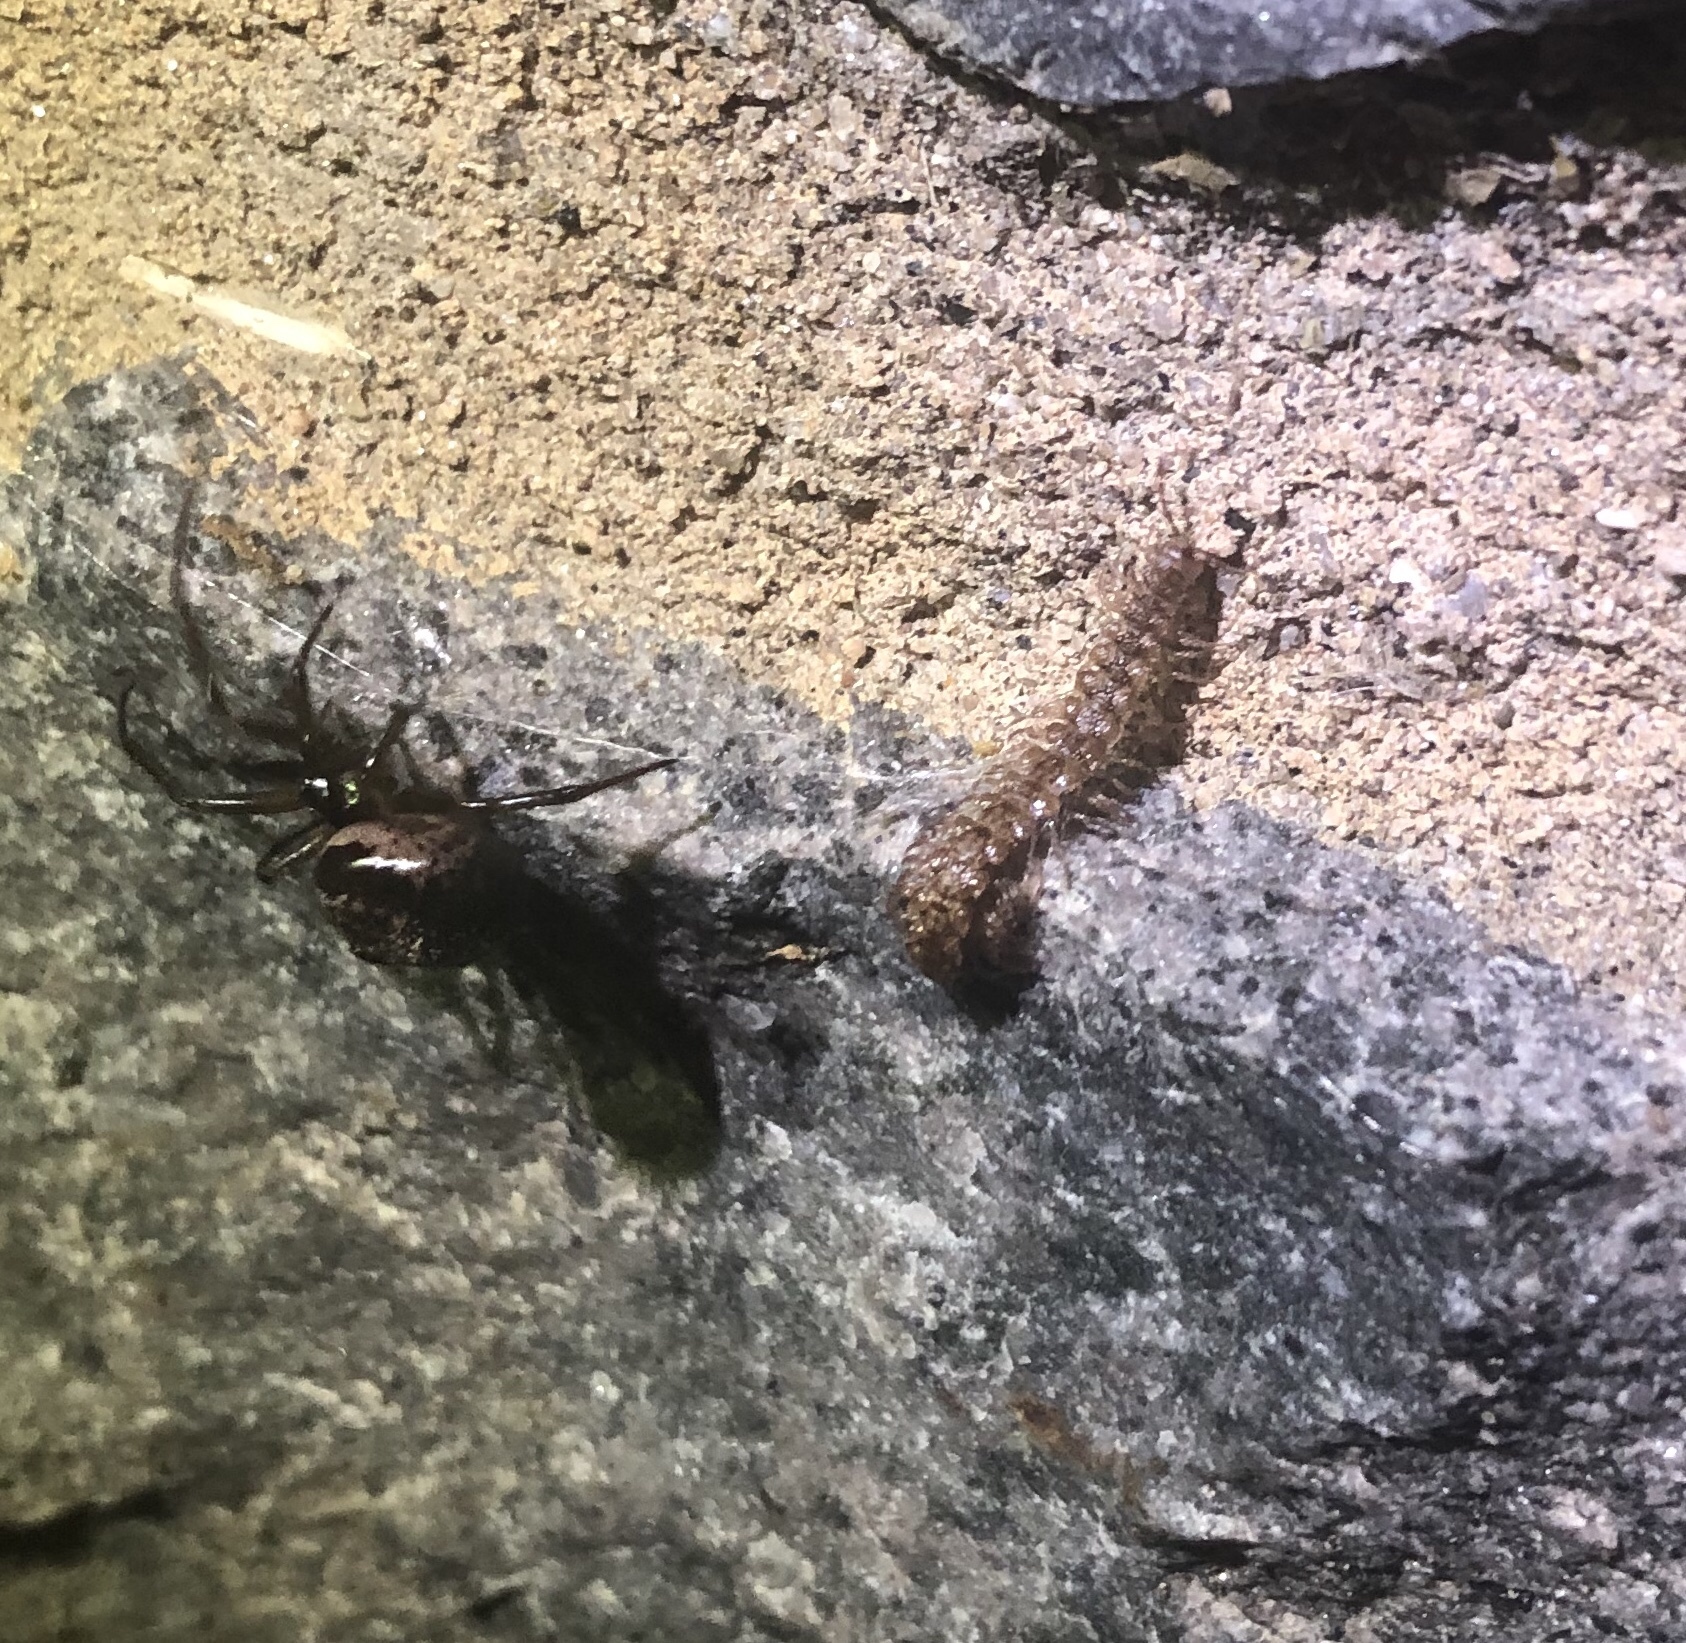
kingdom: Animalia
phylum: Arthropoda
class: Arachnida
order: Araneae
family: Theridiidae
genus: Steatoda
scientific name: Steatoda nobilis
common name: Cobweb weaver
